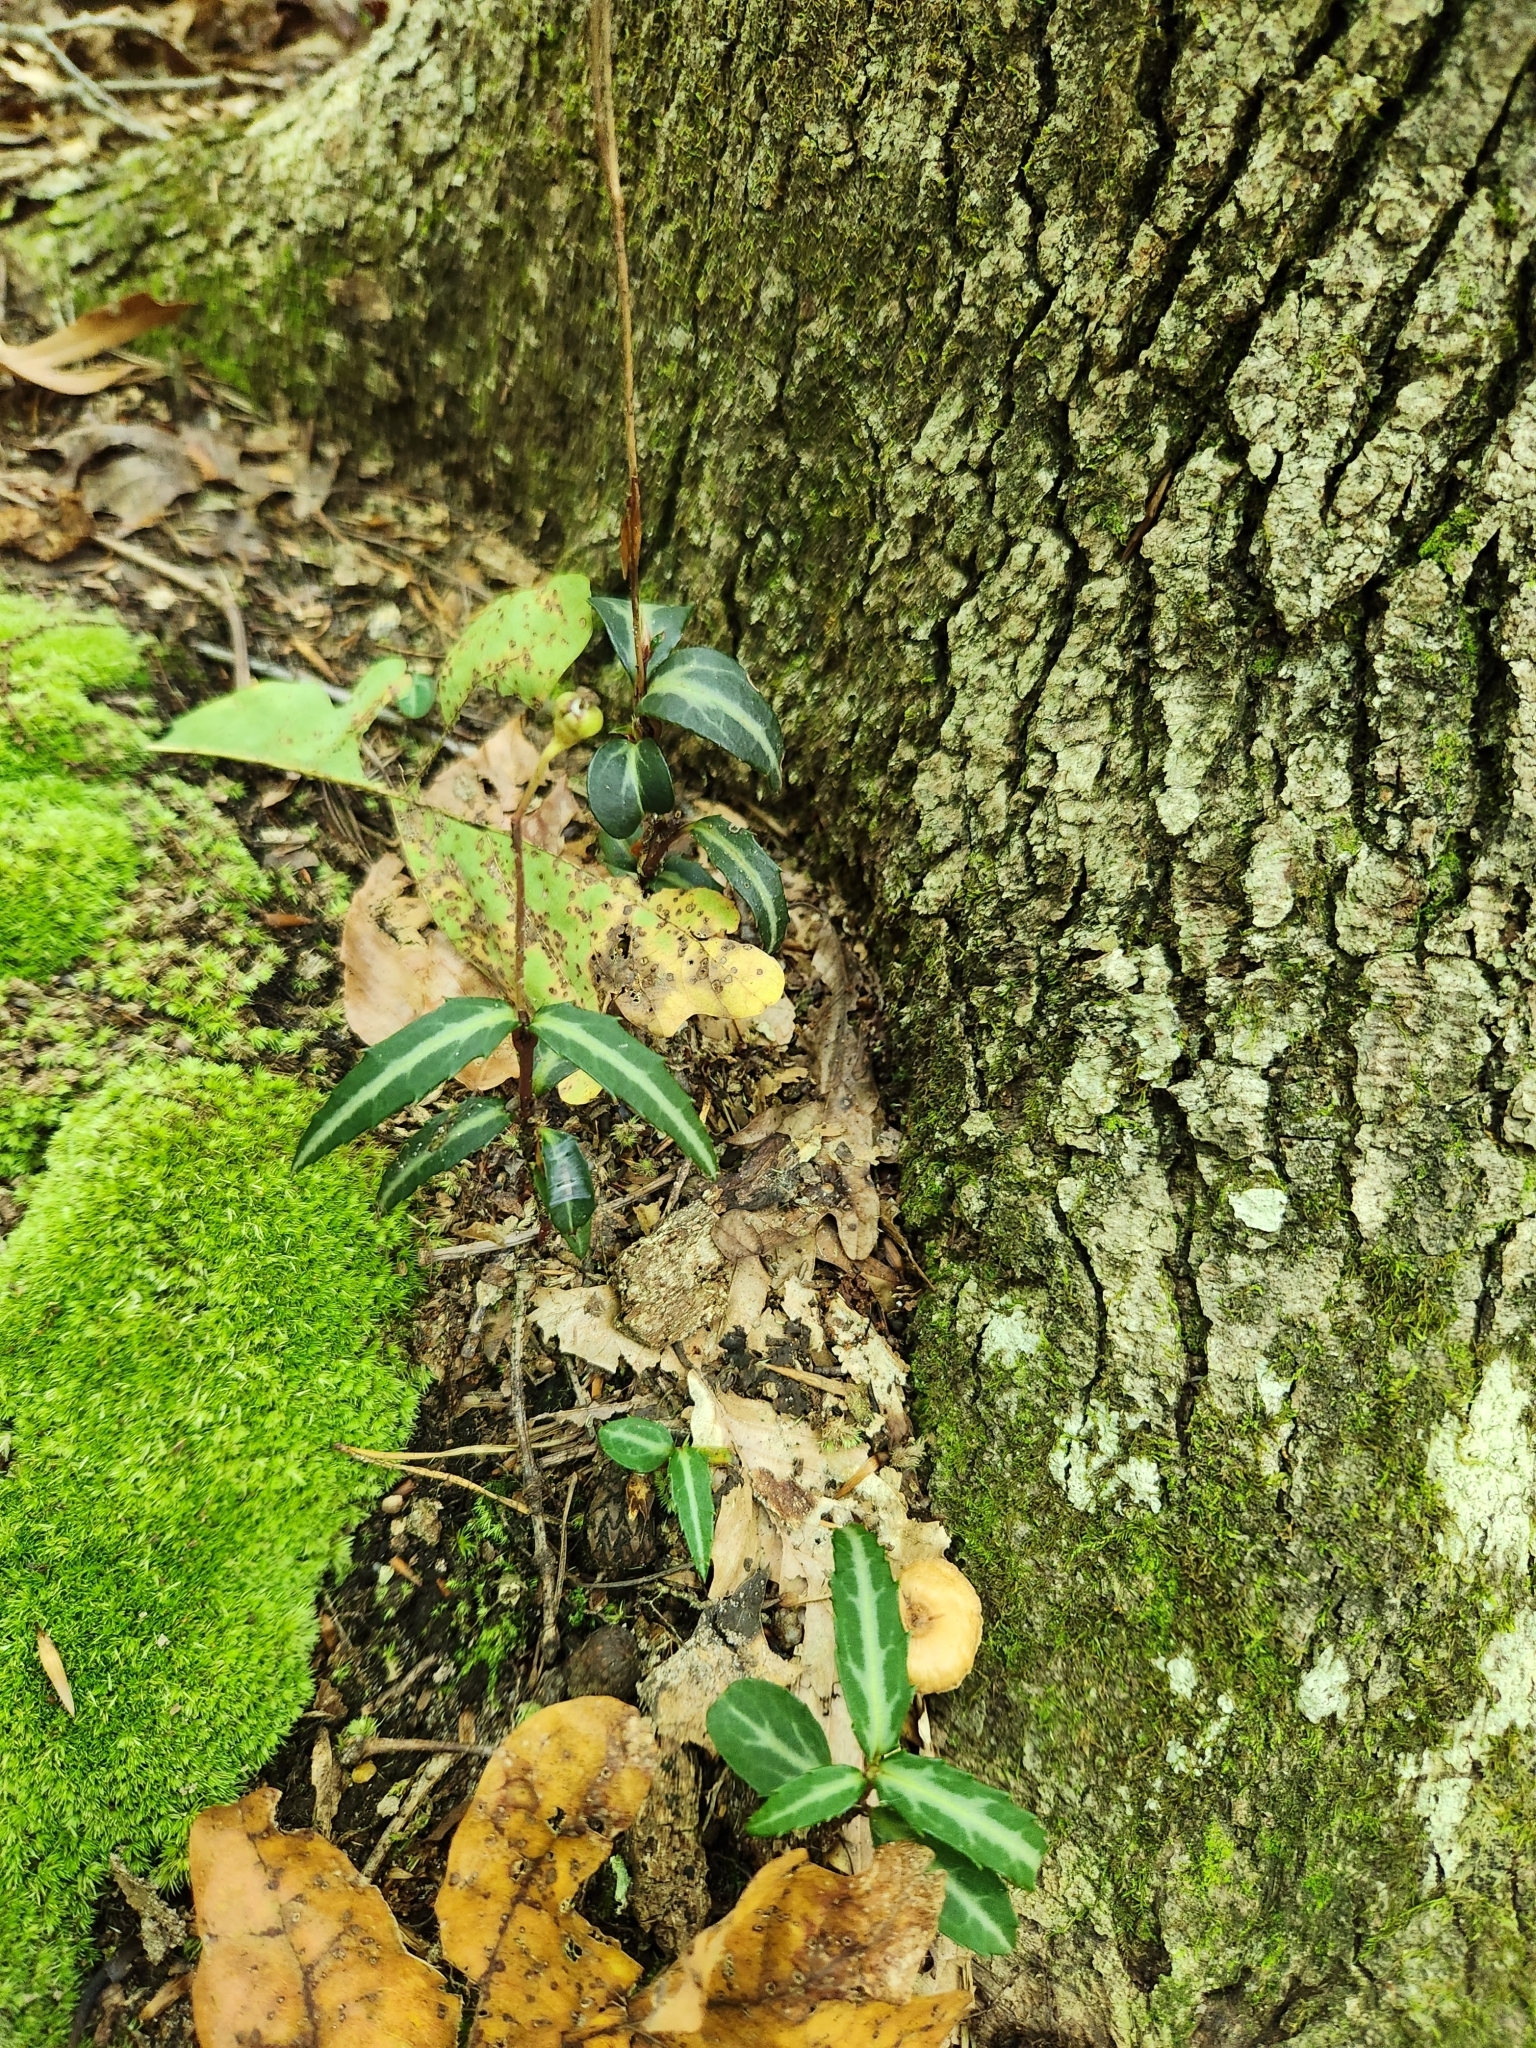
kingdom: Plantae
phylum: Tracheophyta
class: Magnoliopsida
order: Ericales
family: Ericaceae
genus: Chimaphila
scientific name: Chimaphila maculata
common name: Spotted pipsissewa
